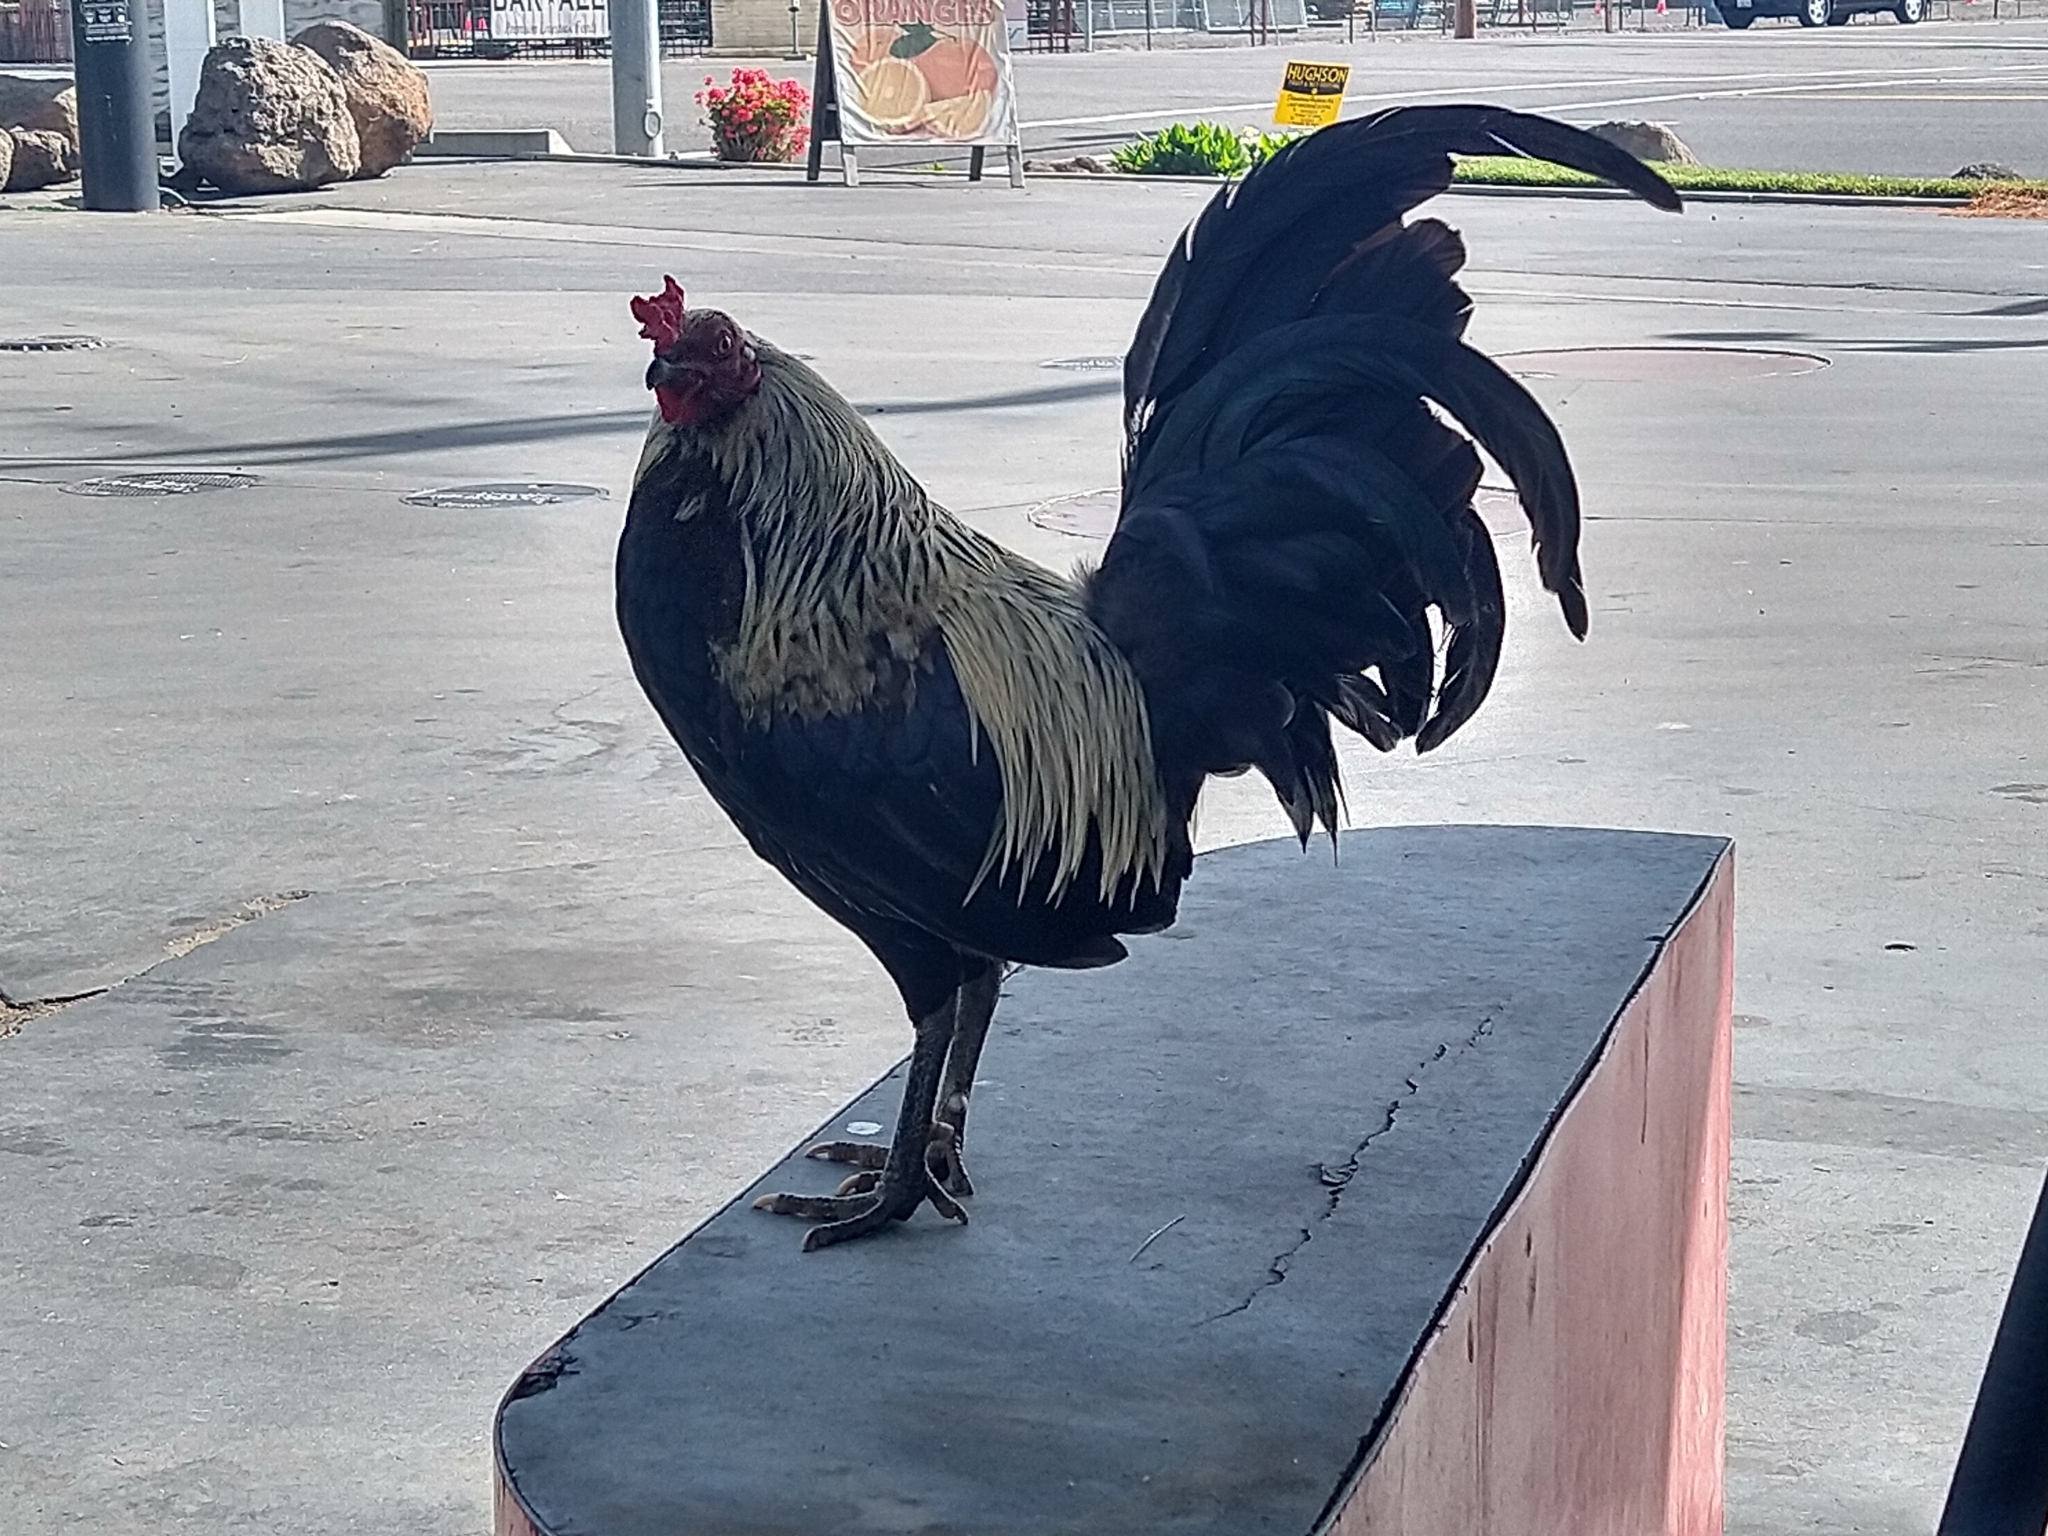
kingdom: Animalia
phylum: Chordata
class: Aves
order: Galliformes
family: Phasianidae
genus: Gallus
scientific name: Gallus gallus
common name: Red junglefowl
